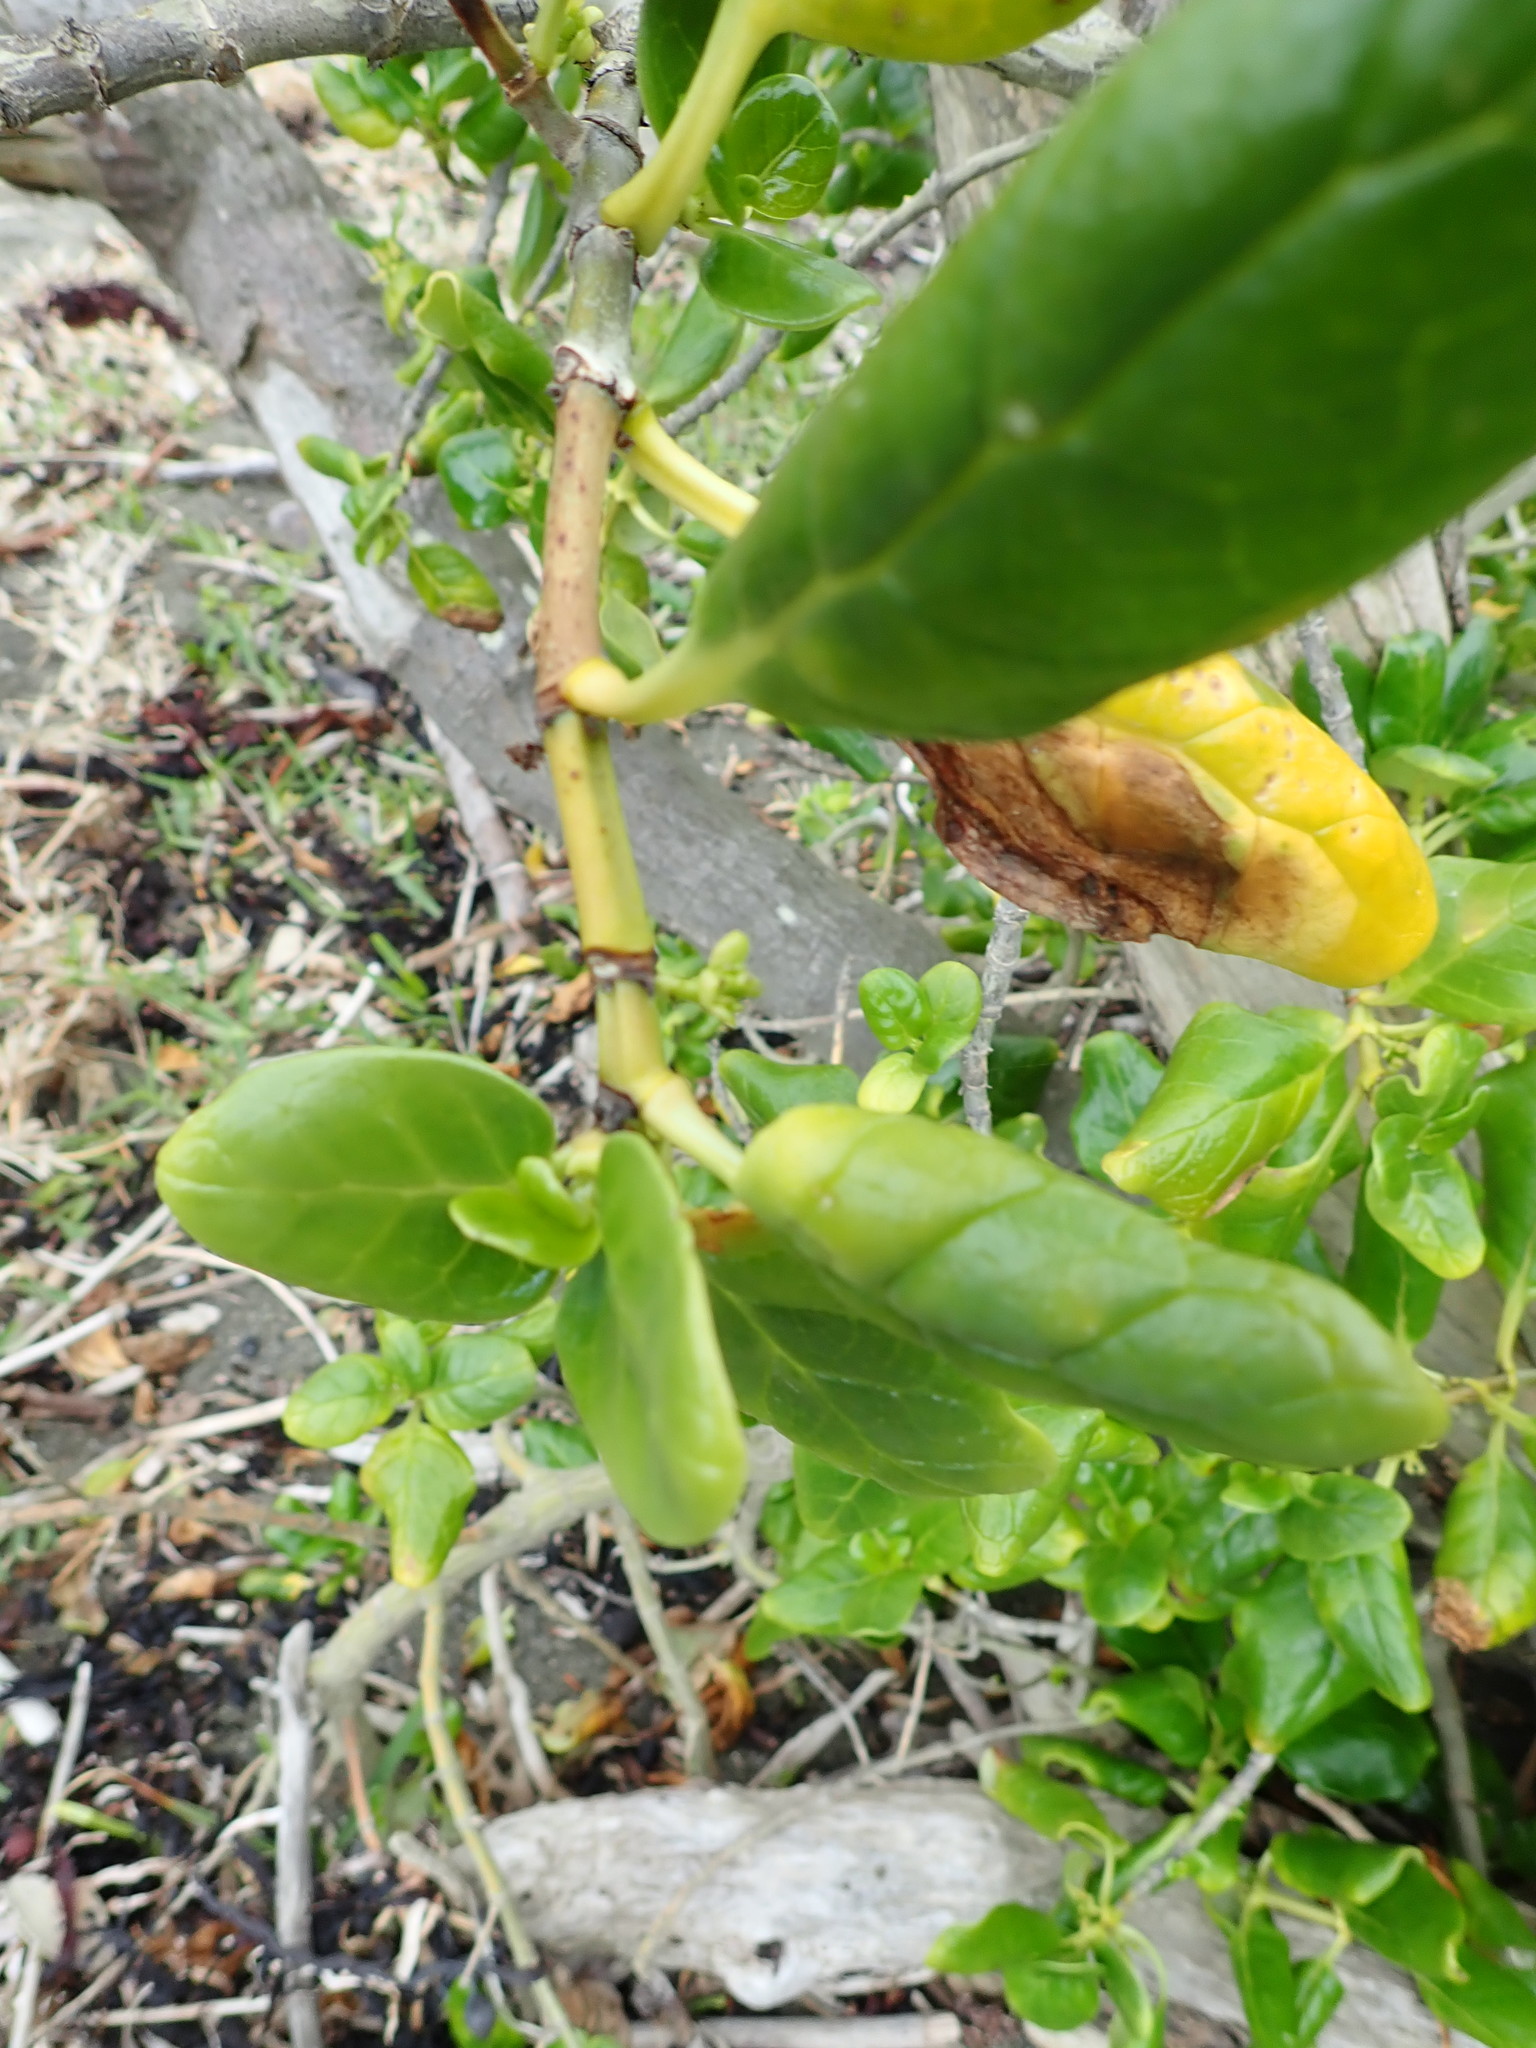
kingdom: Plantae
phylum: Tracheophyta
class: Magnoliopsida
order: Gentianales
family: Rubiaceae
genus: Coprosma
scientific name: Coprosma repens
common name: Tree bedstraw
